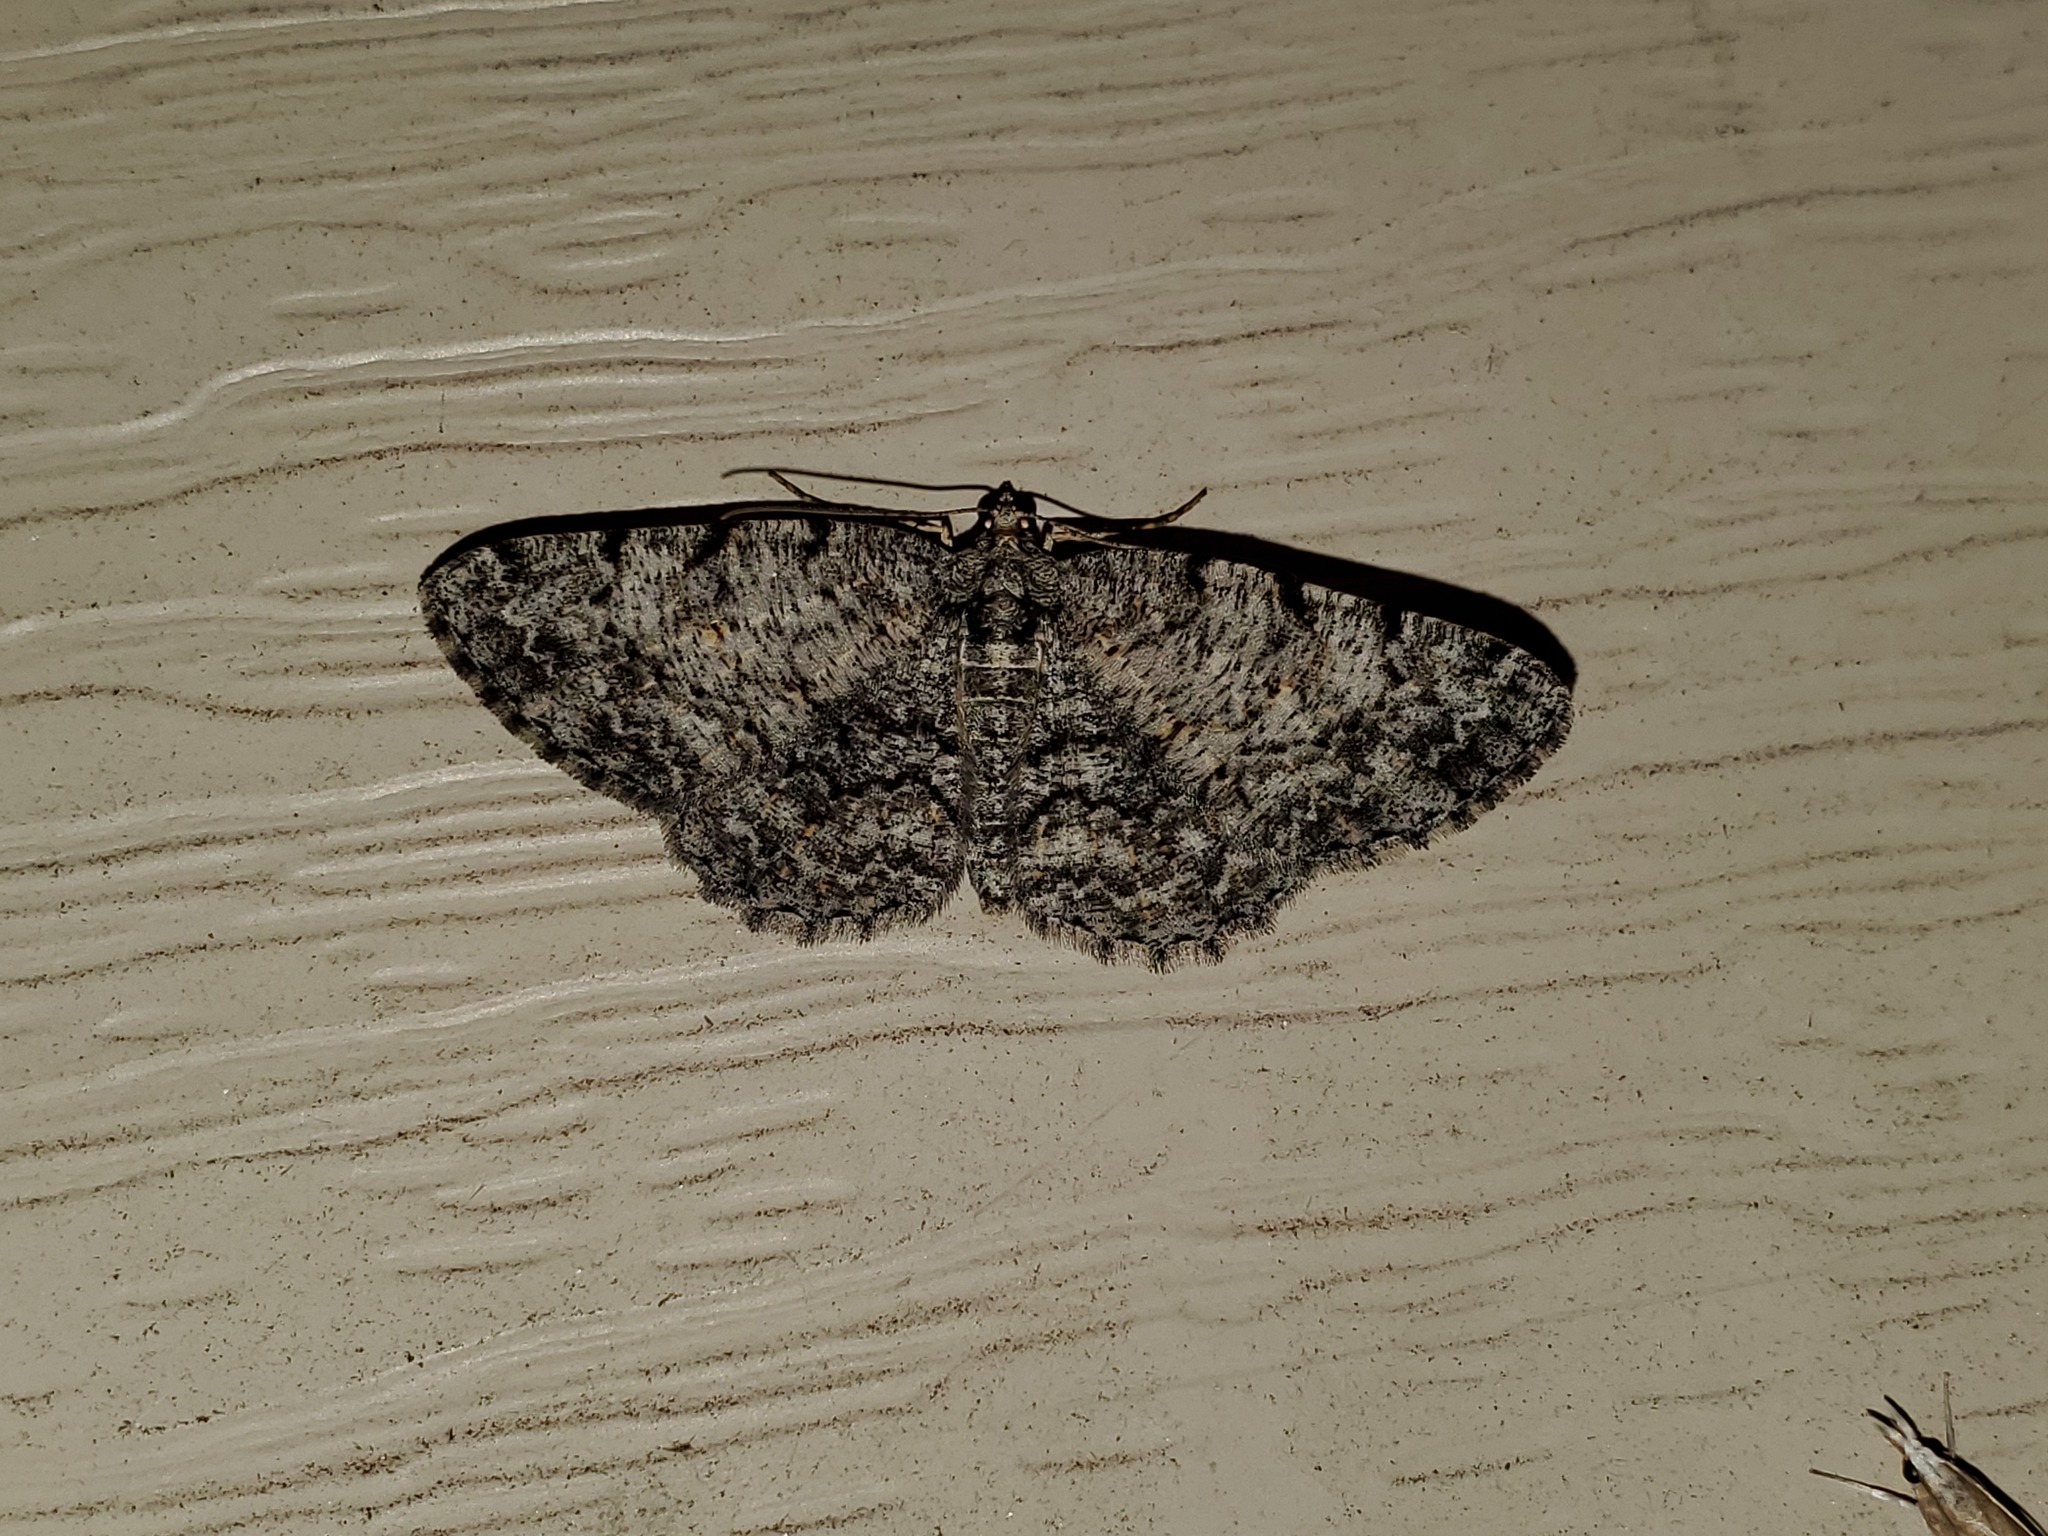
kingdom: Animalia
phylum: Arthropoda
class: Insecta
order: Lepidoptera
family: Geometridae
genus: Protoboarmia
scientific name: Protoboarmia porcelaria
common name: Porcelain gray
